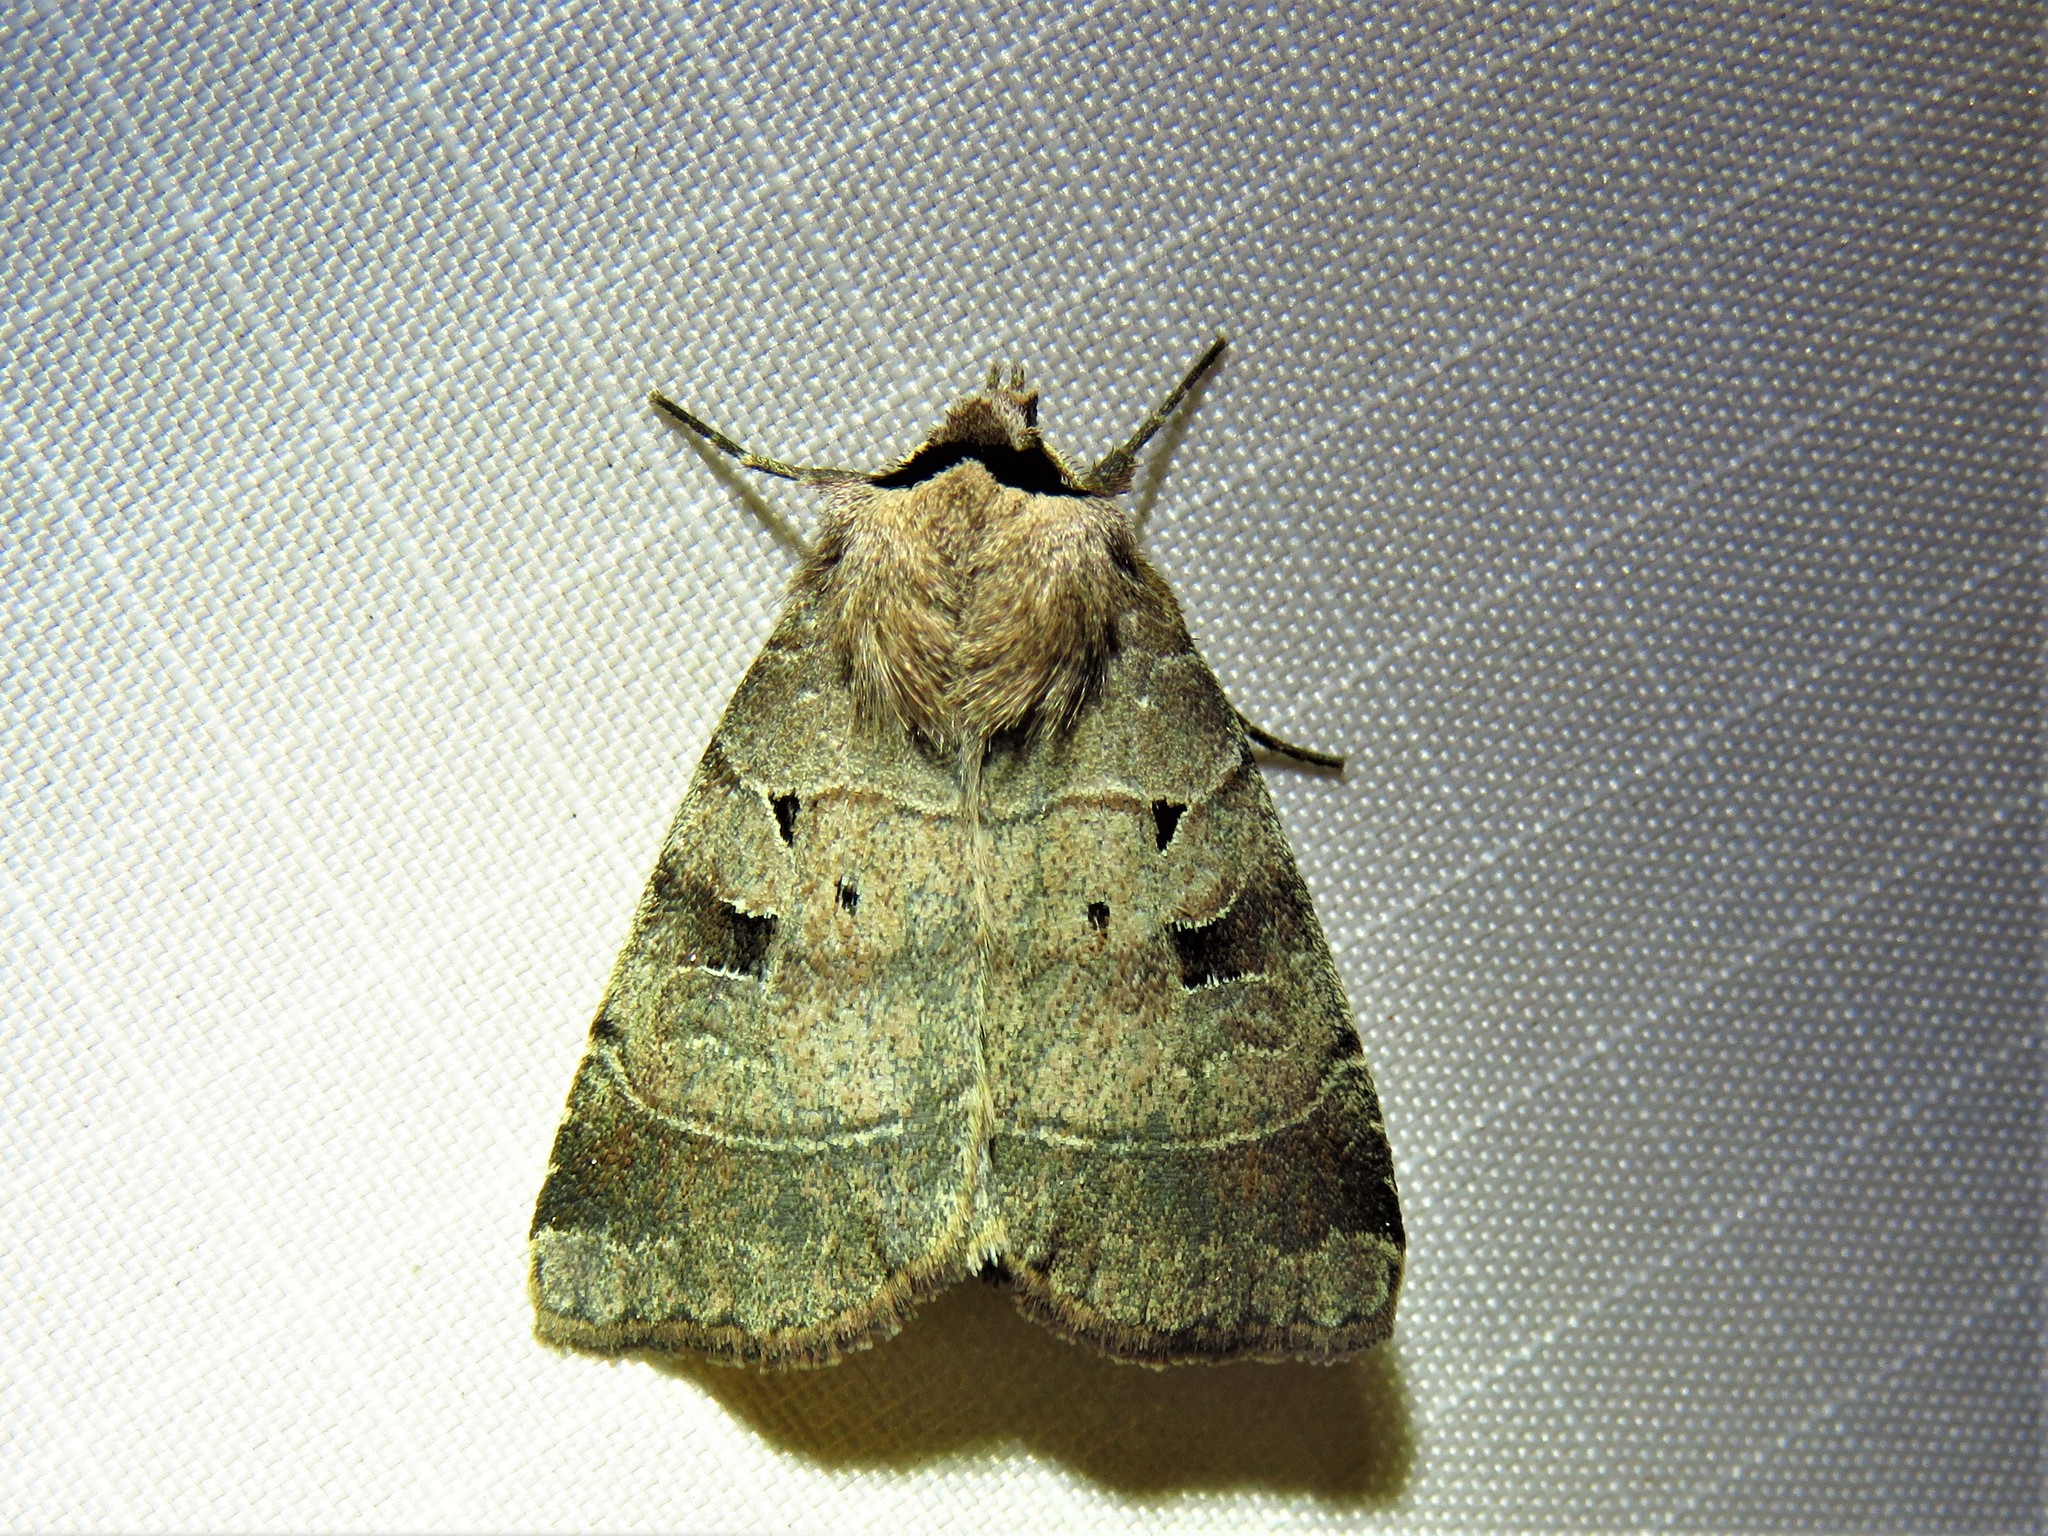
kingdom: Animalia
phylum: Arthropoda
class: Insecta
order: Lepidoptera
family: Noctuidae
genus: Agnorisma
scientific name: Agnorisma badinodis
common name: Pale-banded dart
